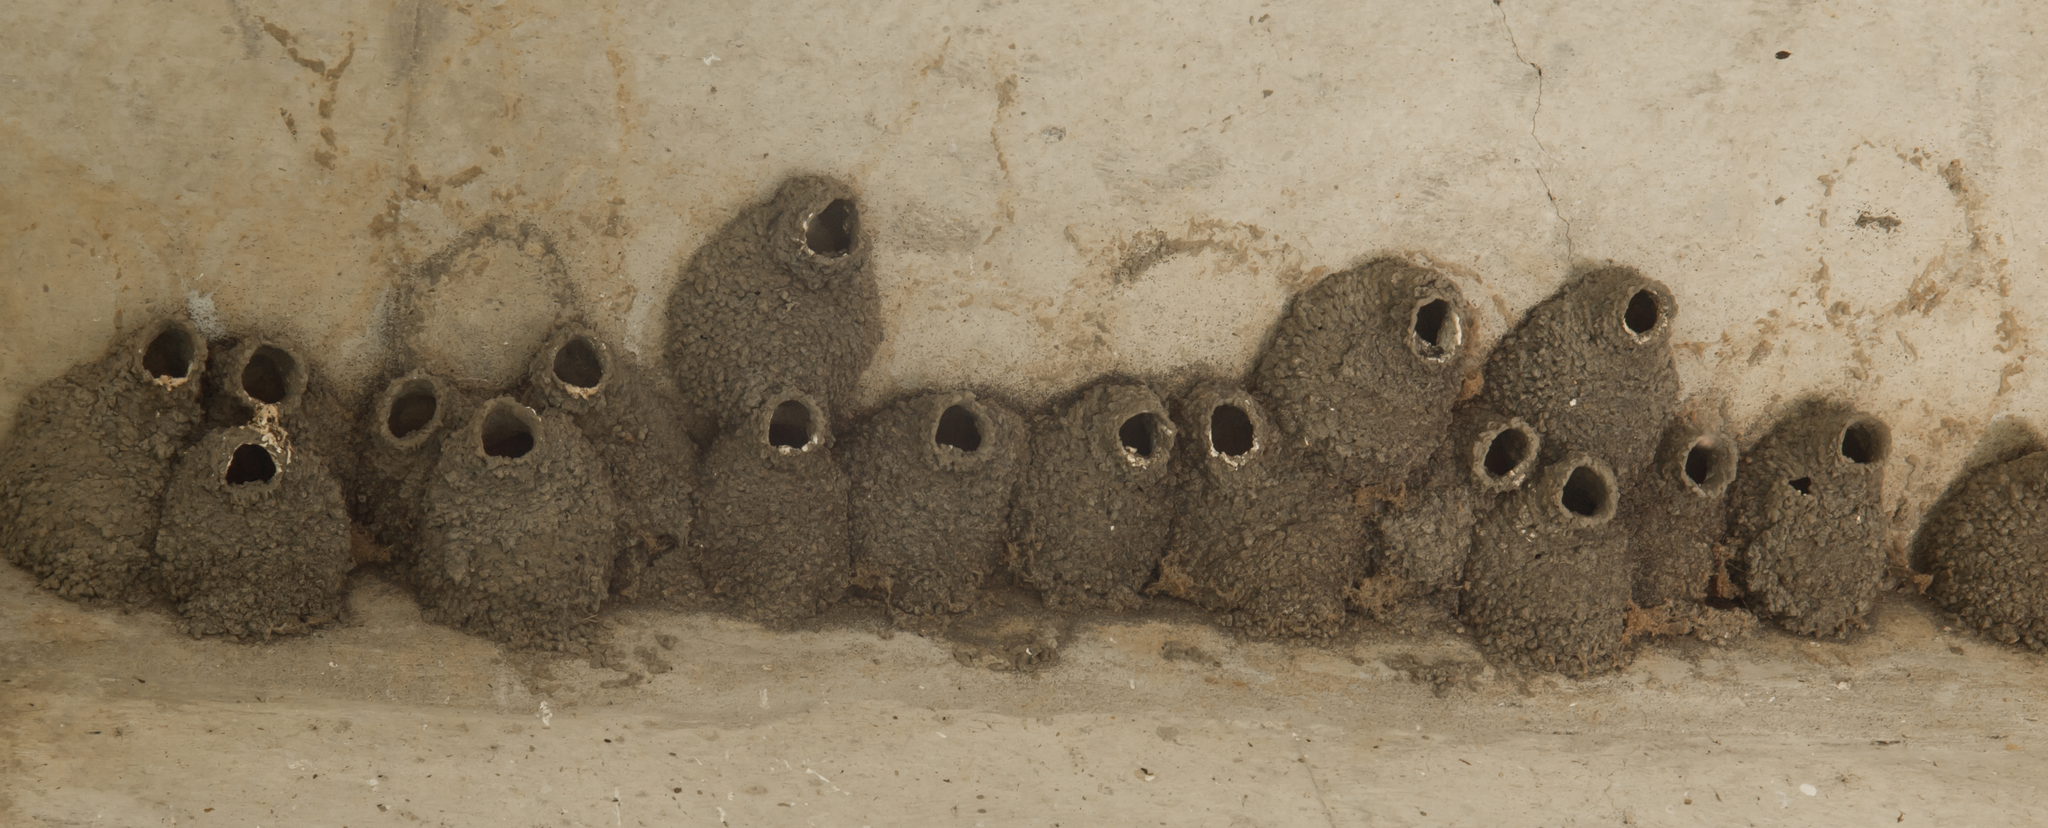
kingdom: Animalia
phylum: Chordata
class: Aves
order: Passeriformes
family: Hirundinidae
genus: Petrochelidon
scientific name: Petrochelidon pyrrhonota
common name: American cliff swallow
